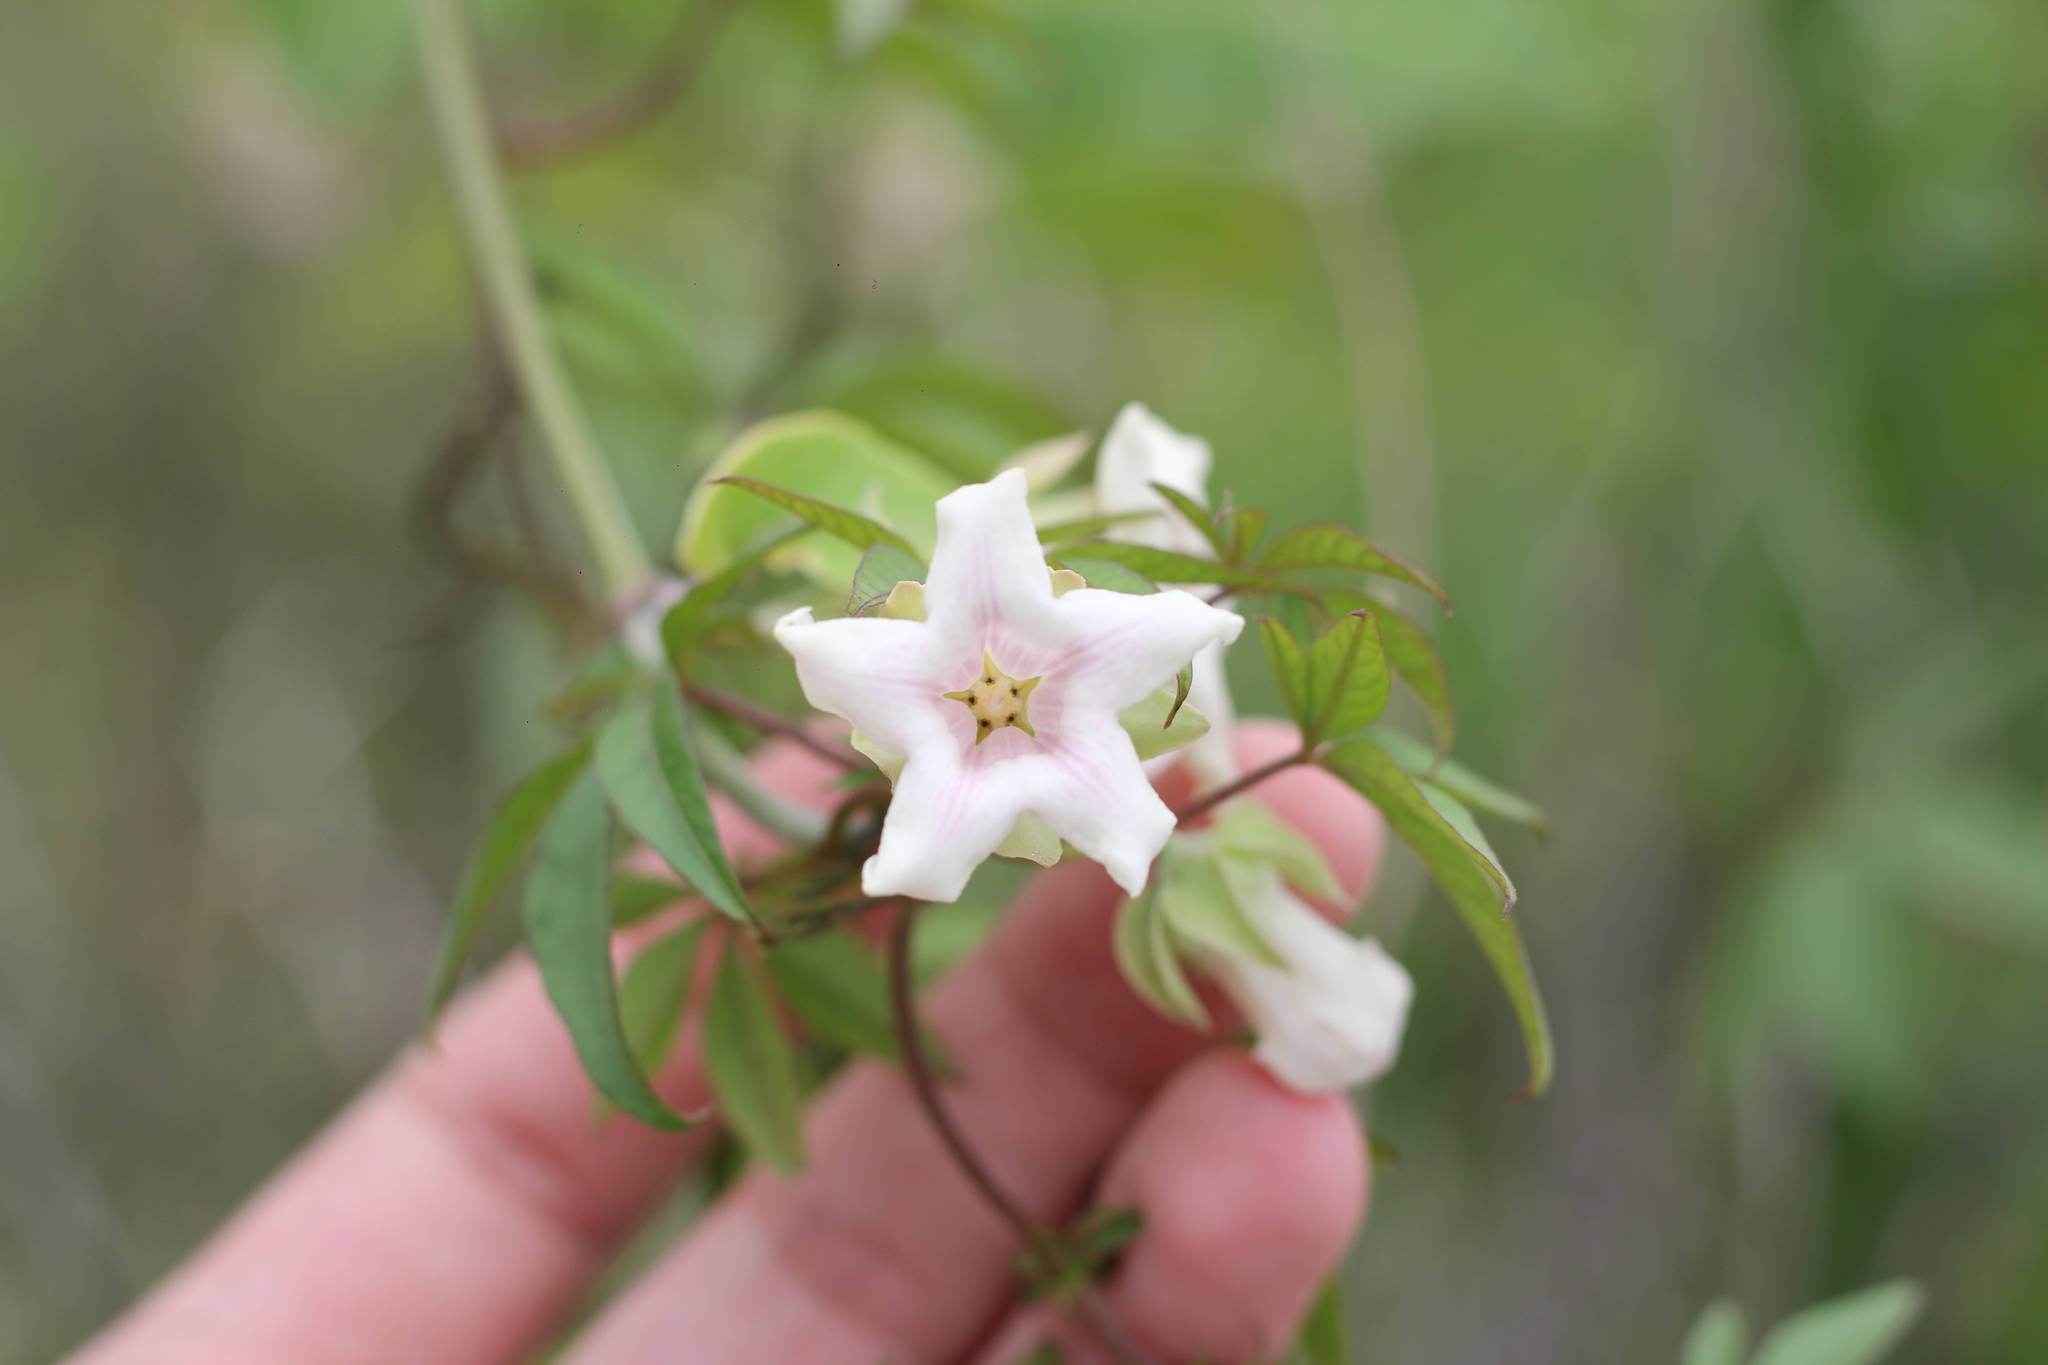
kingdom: Plantae
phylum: Tracheophyta
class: Magnoliopsida
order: Gentianales
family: Apocynaceae
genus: Araujia
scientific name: Araujia sericifera
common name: White bladderflower
